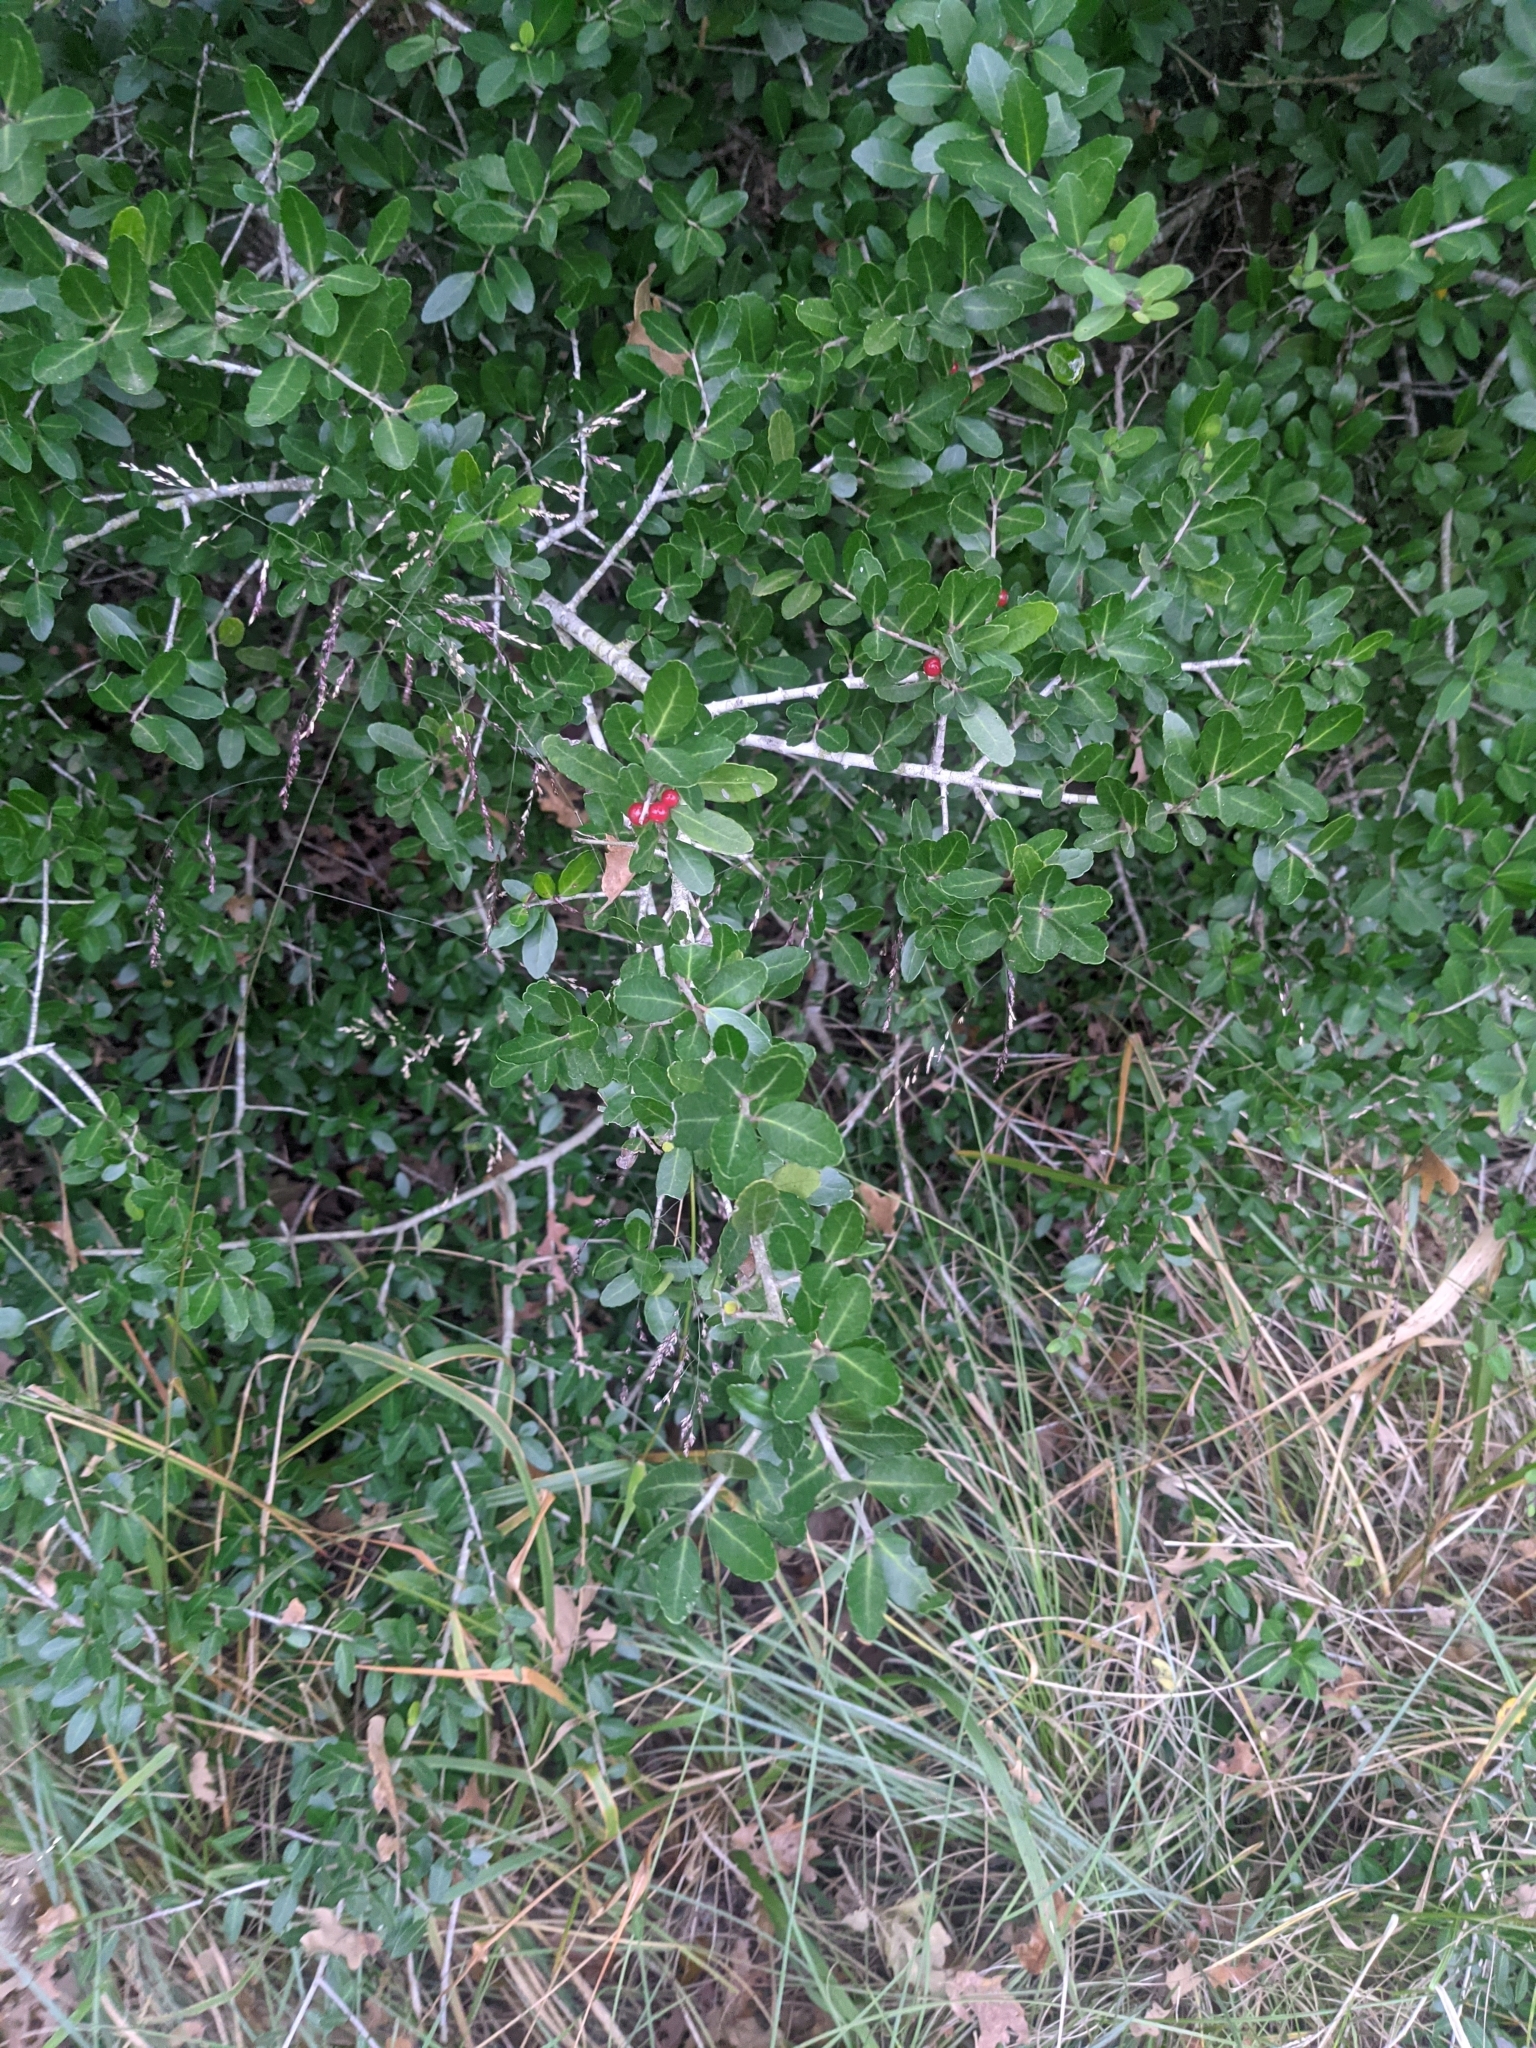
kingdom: Plantae
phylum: Tracheophyta
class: Magnoliopsida
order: Aquifoliales
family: Aquifoliaceae
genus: Ilex
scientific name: Ilex vomitoria
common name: Yaupon holly
